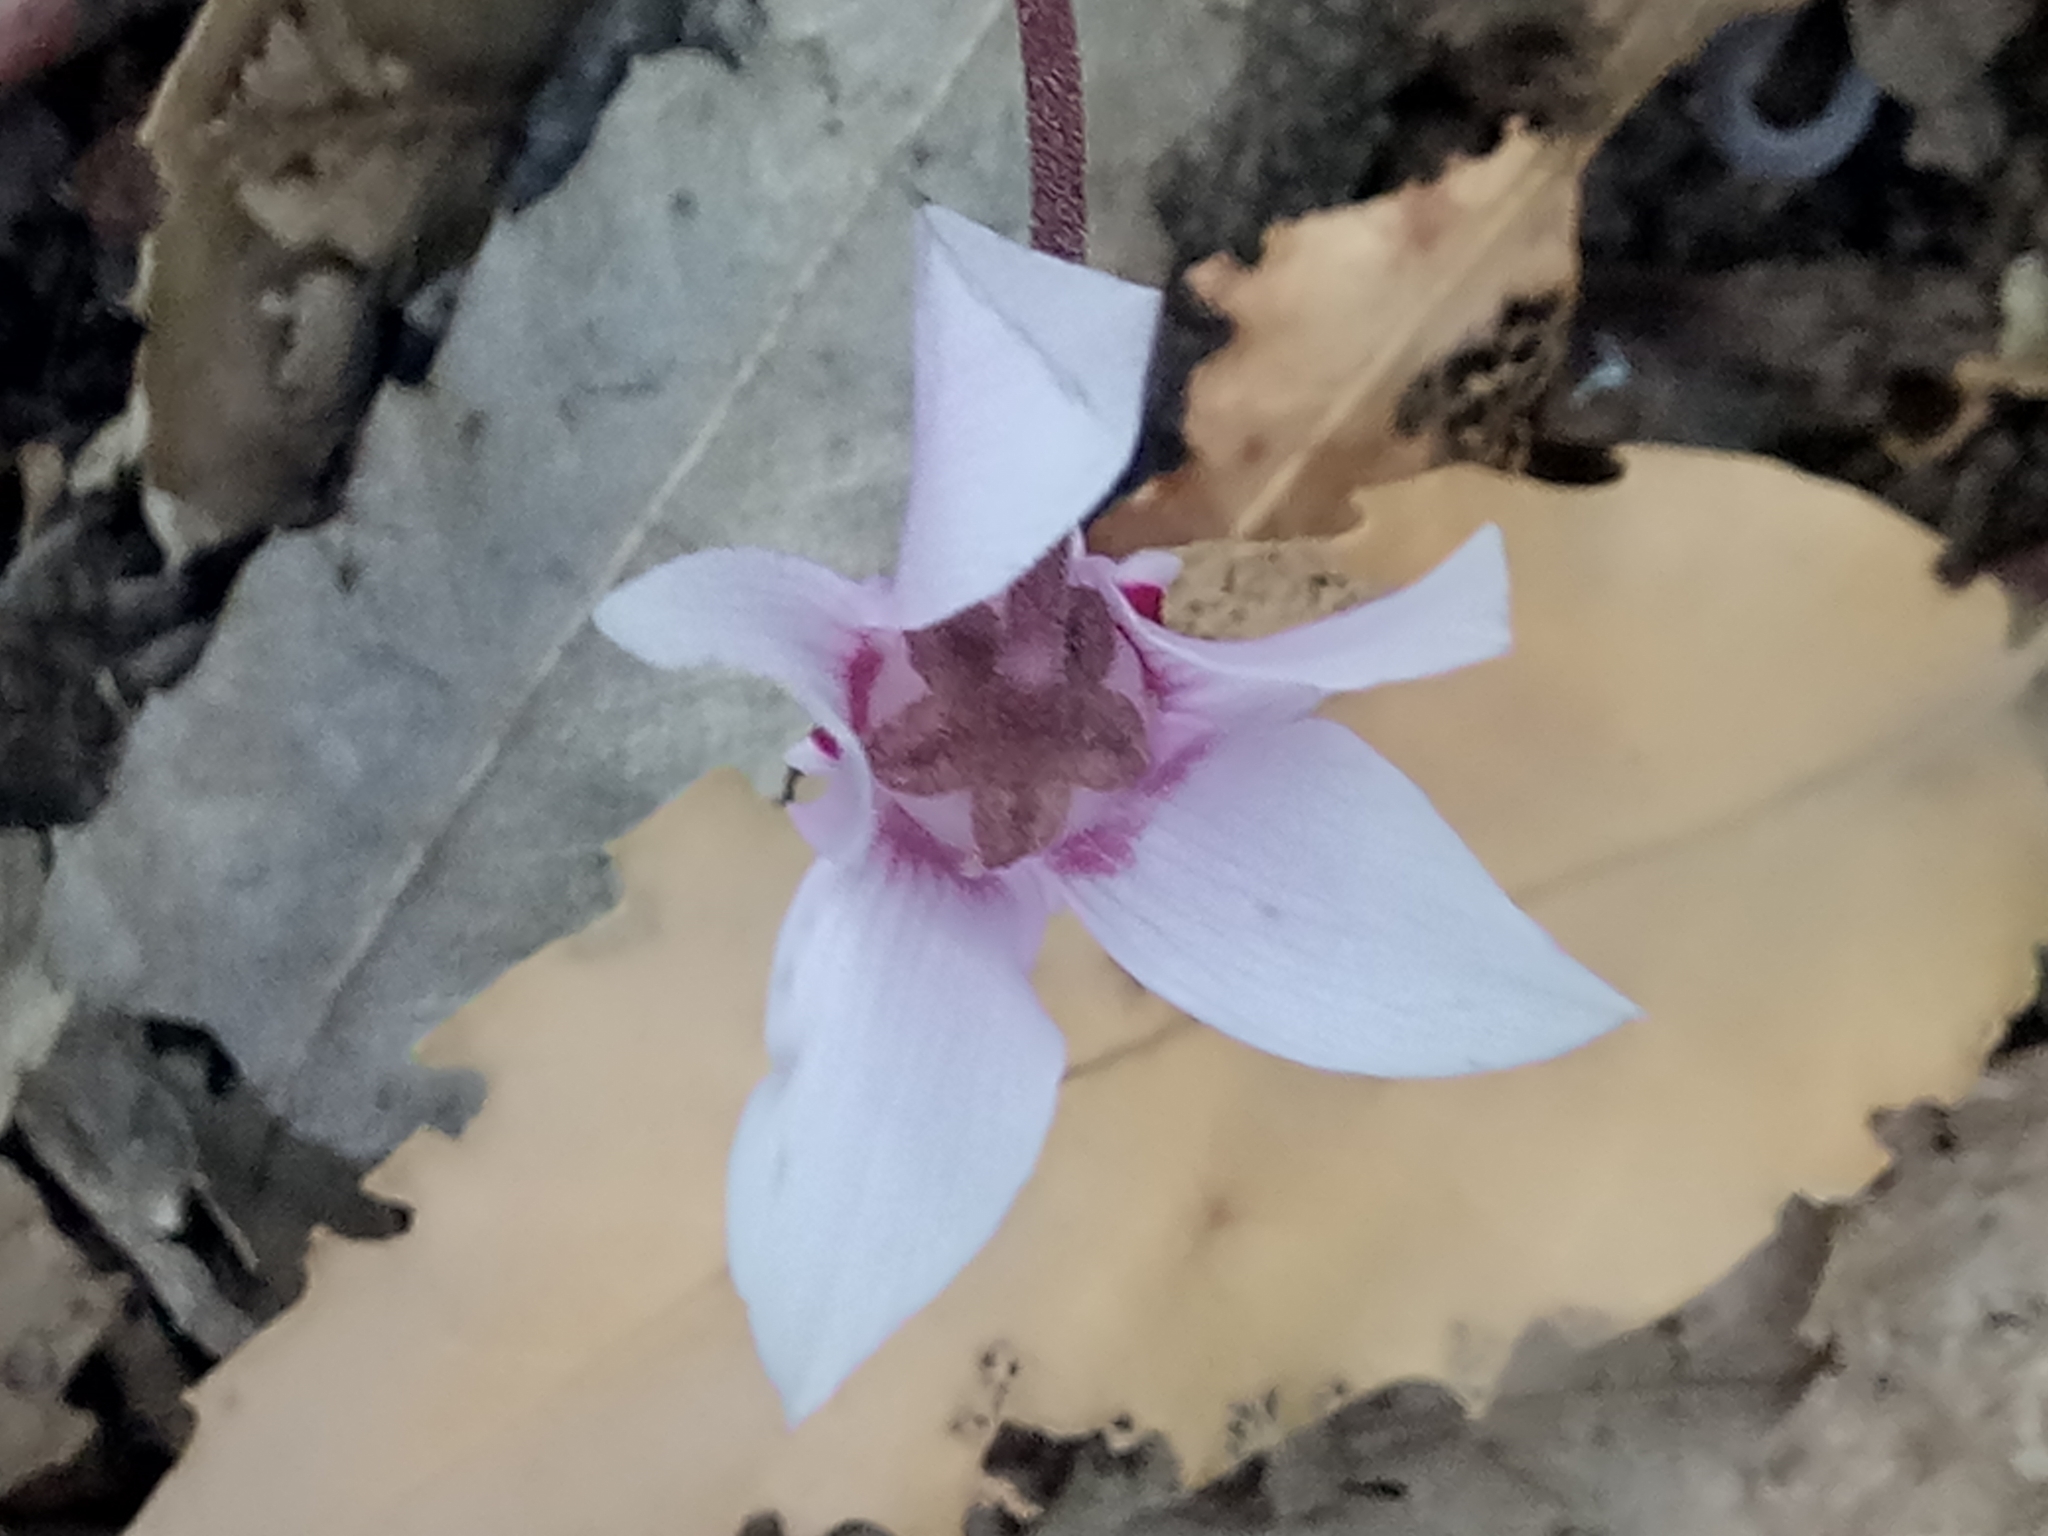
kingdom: Plantae
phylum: Tracheophyta
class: Magnoliopsida
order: Ericales
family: Primulaceae
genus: Cyclamen
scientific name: Cyclamen africanum
